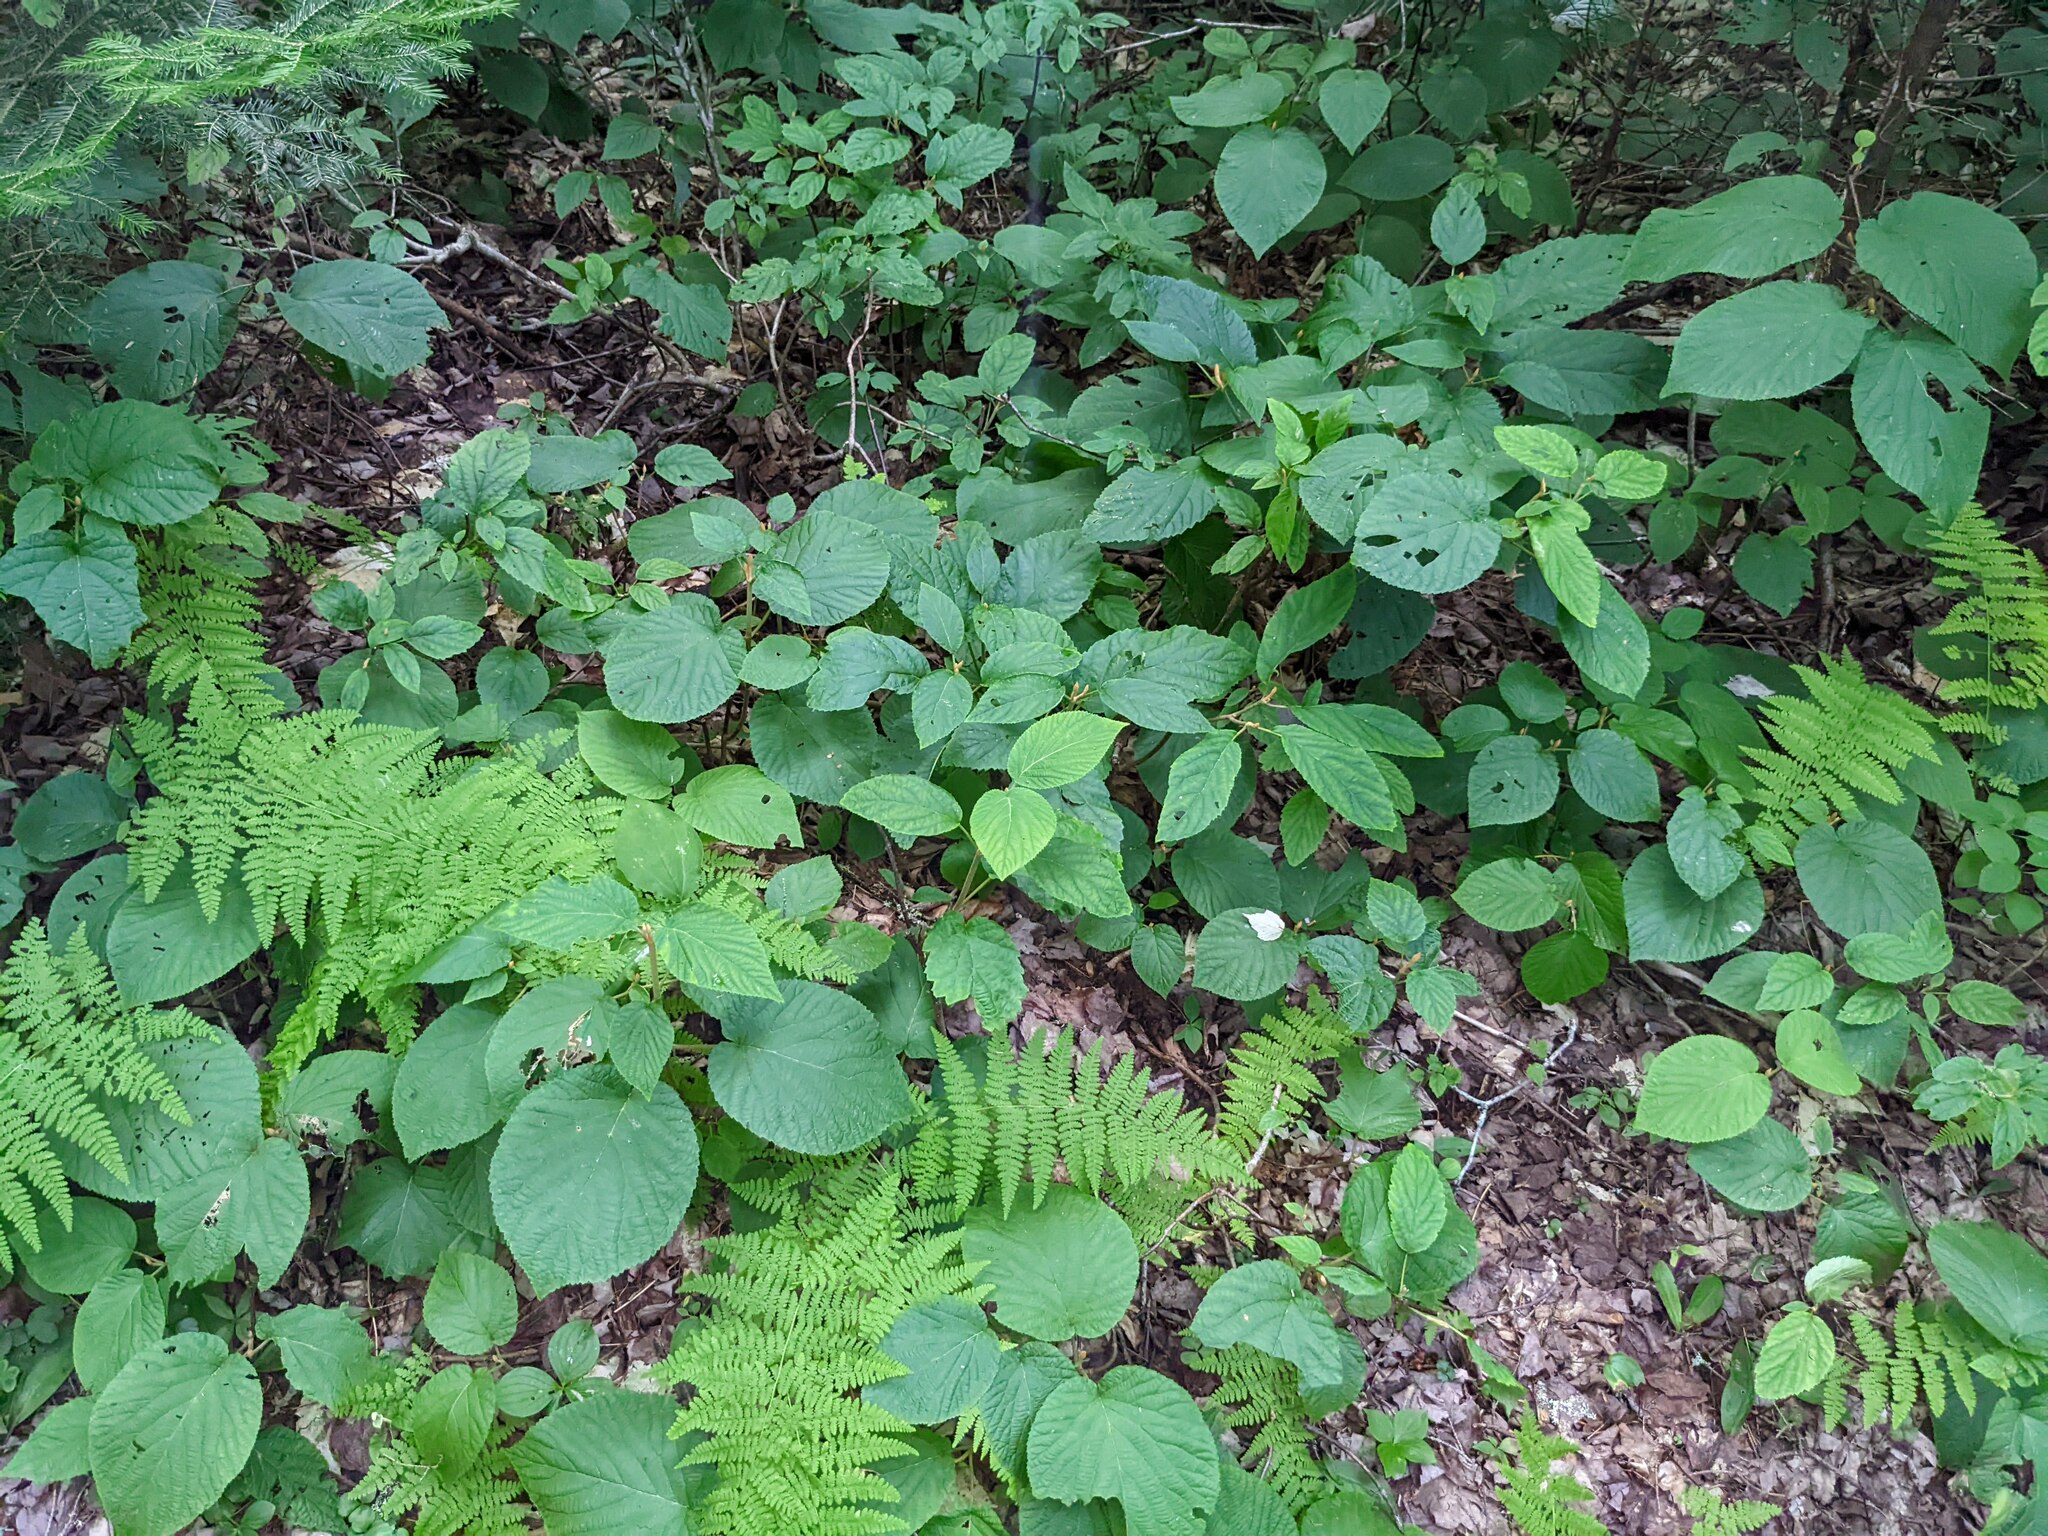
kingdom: Plantae
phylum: Tracheophyta
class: Magnoliopsida
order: Dipsacales
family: Viburnaceae
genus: Viburnum
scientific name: Viburnum lantanoides
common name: Hobblebush
